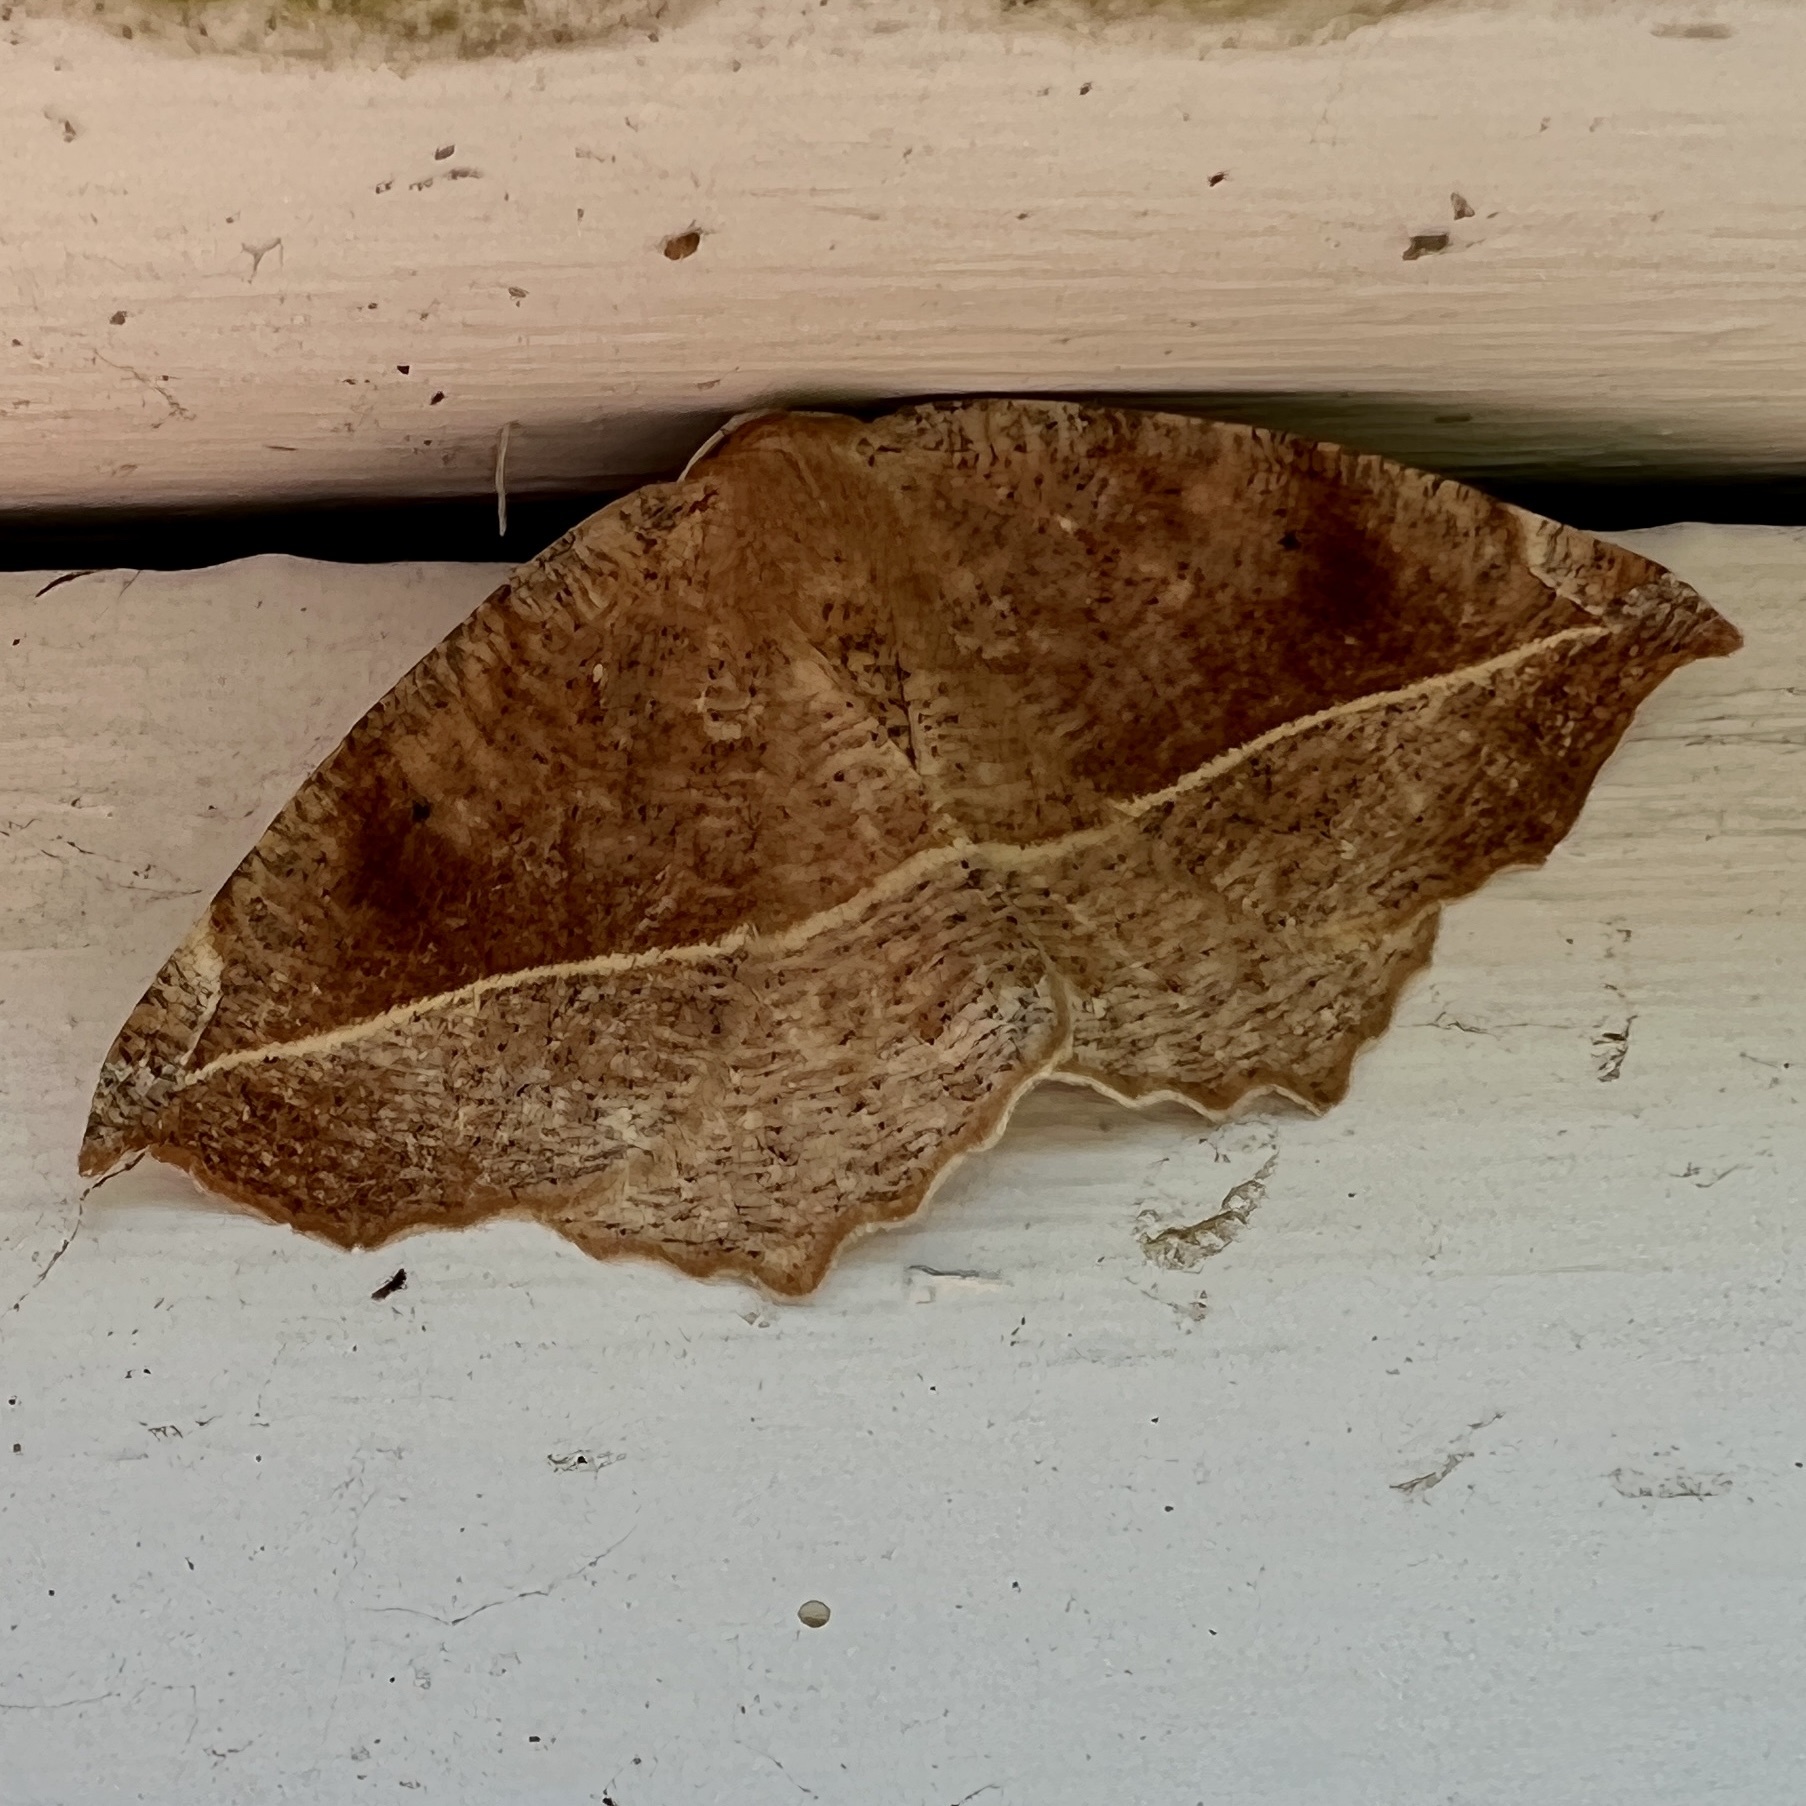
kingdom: Animalia
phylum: Arthropoda
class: Insecta
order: Lepidoptera
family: Geometridae
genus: Eutrapela
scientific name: Eutrapela clemataria
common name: Curved-toothed geometer
